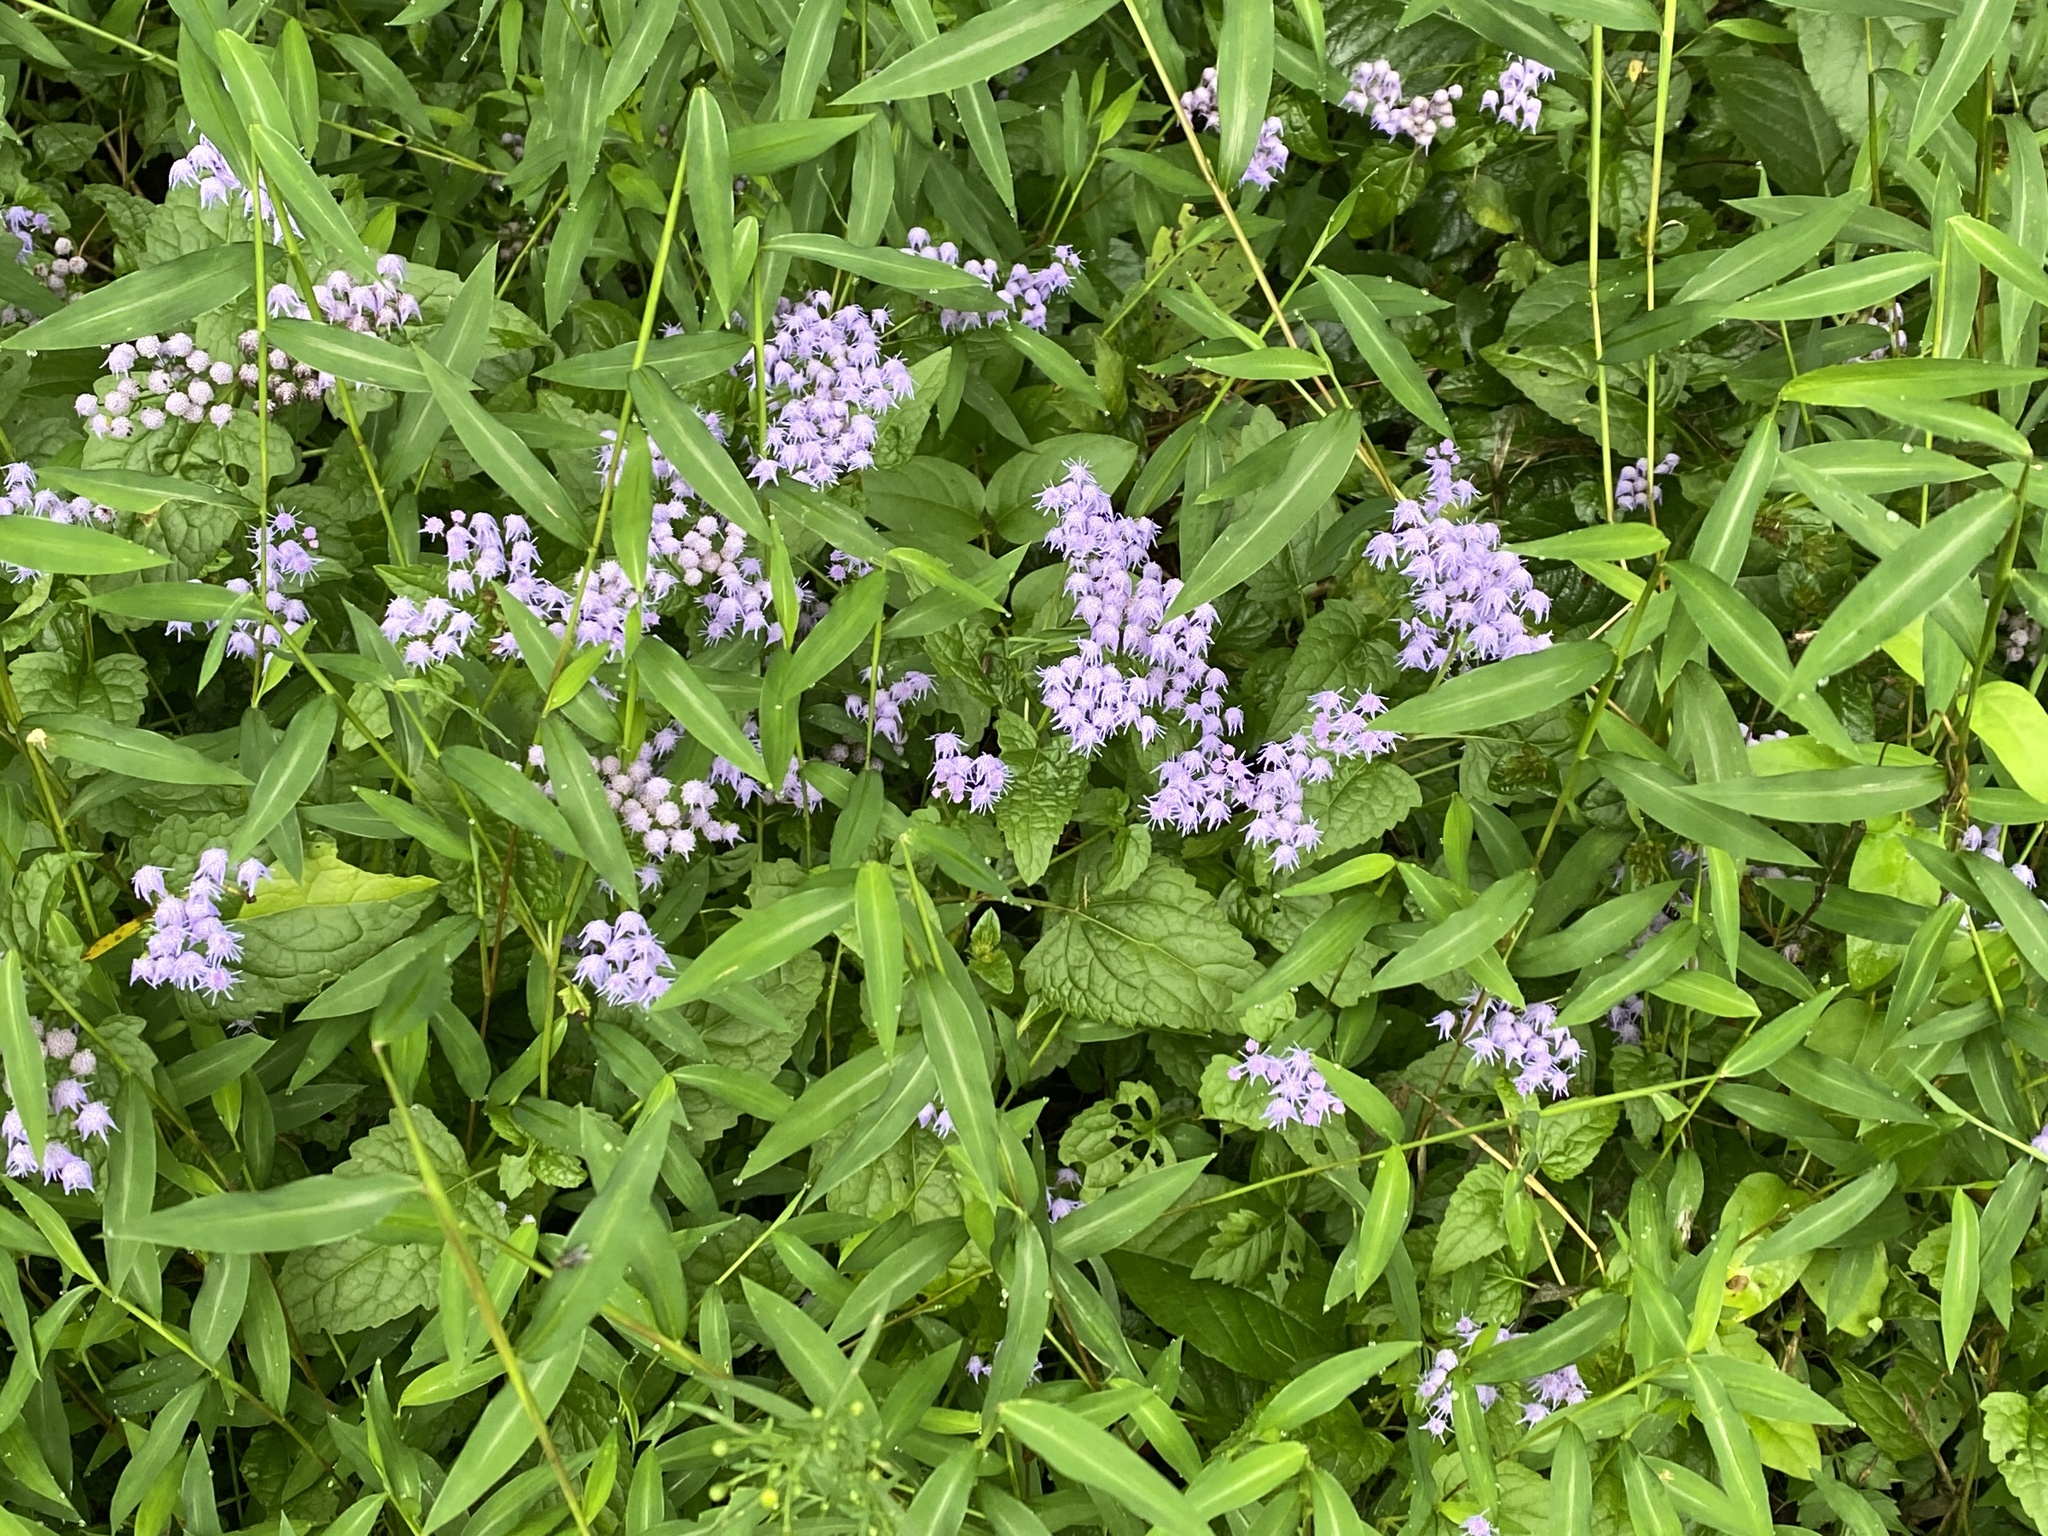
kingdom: Plantae
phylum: Tracheophyta
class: Magnoliopsida
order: Asterales
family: Asteraceae
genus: Conoclinium
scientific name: Conoclinium coelestinum
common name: Blue mistflower
